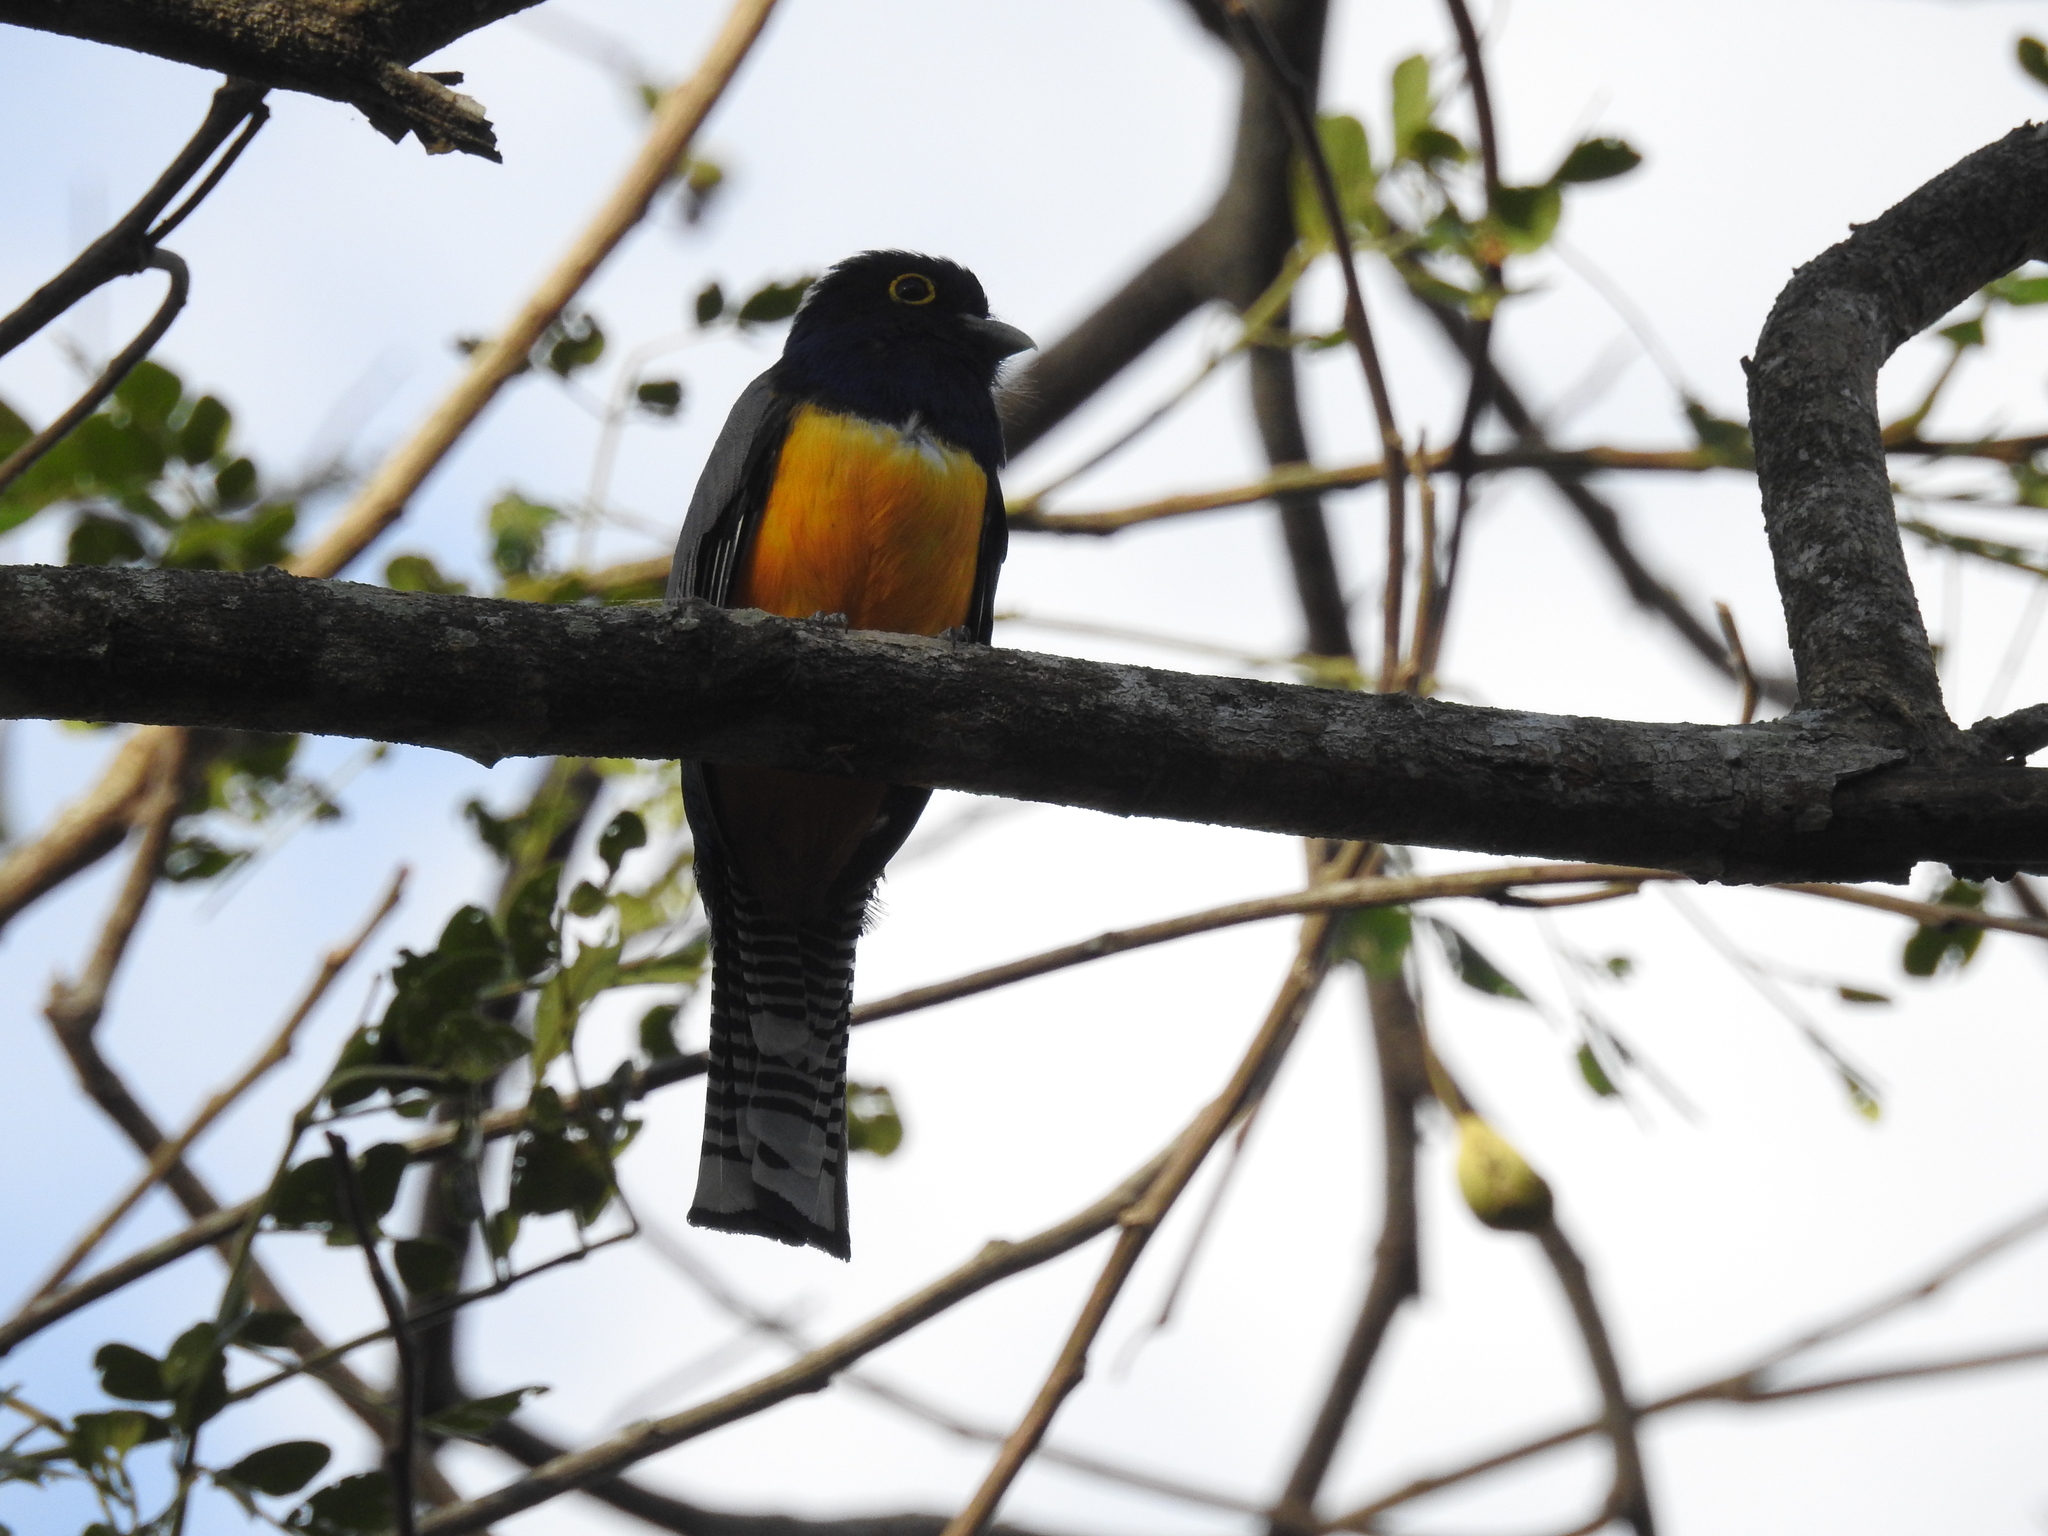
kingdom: Animalia
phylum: Chordata
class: Aves
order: Trogoniformes
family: Trogonidae
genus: Trogon
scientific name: Trogon caligatus
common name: Gartered trogon
